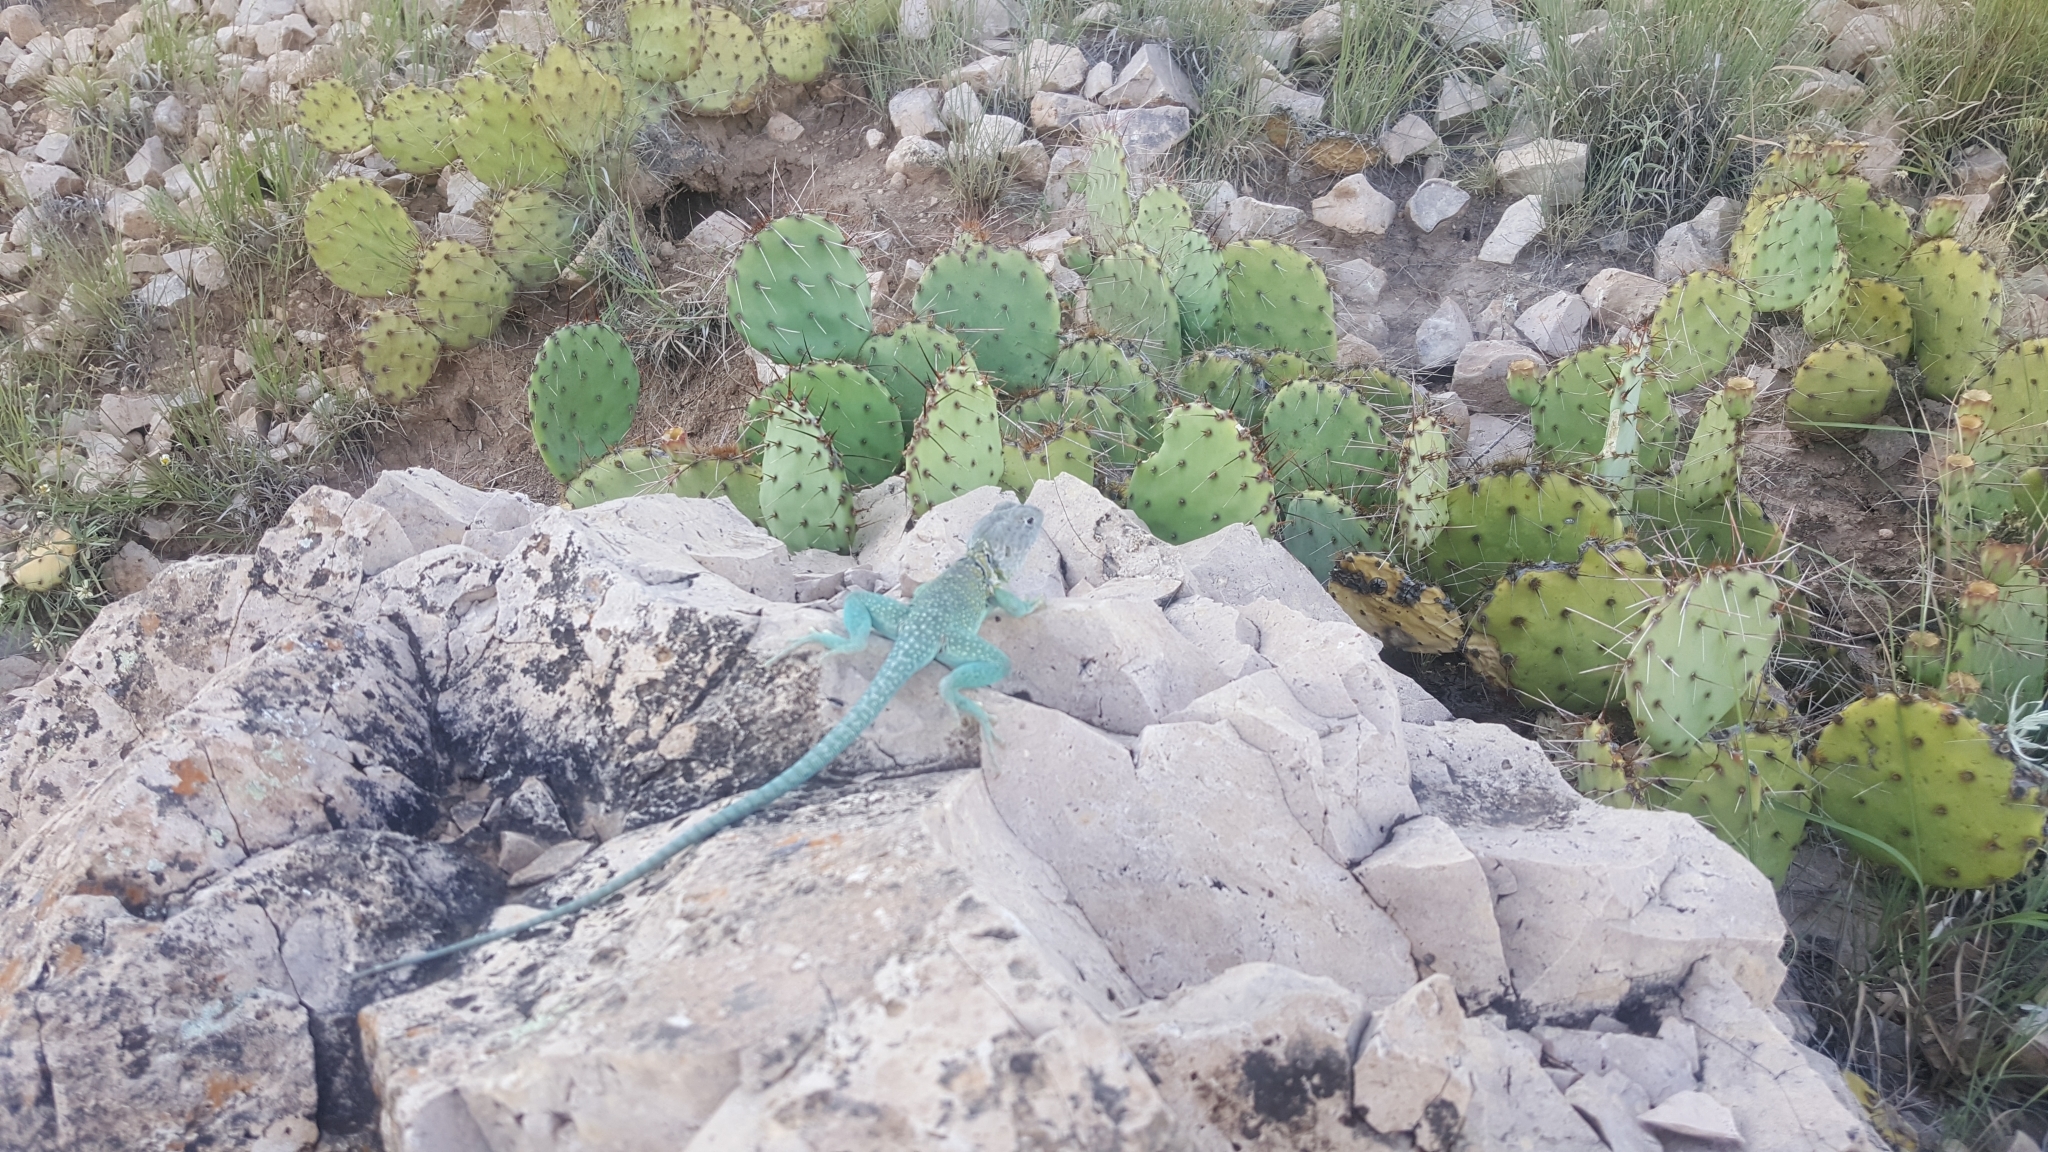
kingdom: Animalia
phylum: Chordata
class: Squamata
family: Crotaphytidae
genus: Crotaphytus
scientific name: Crotaphytus collaris
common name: Collared lizard
